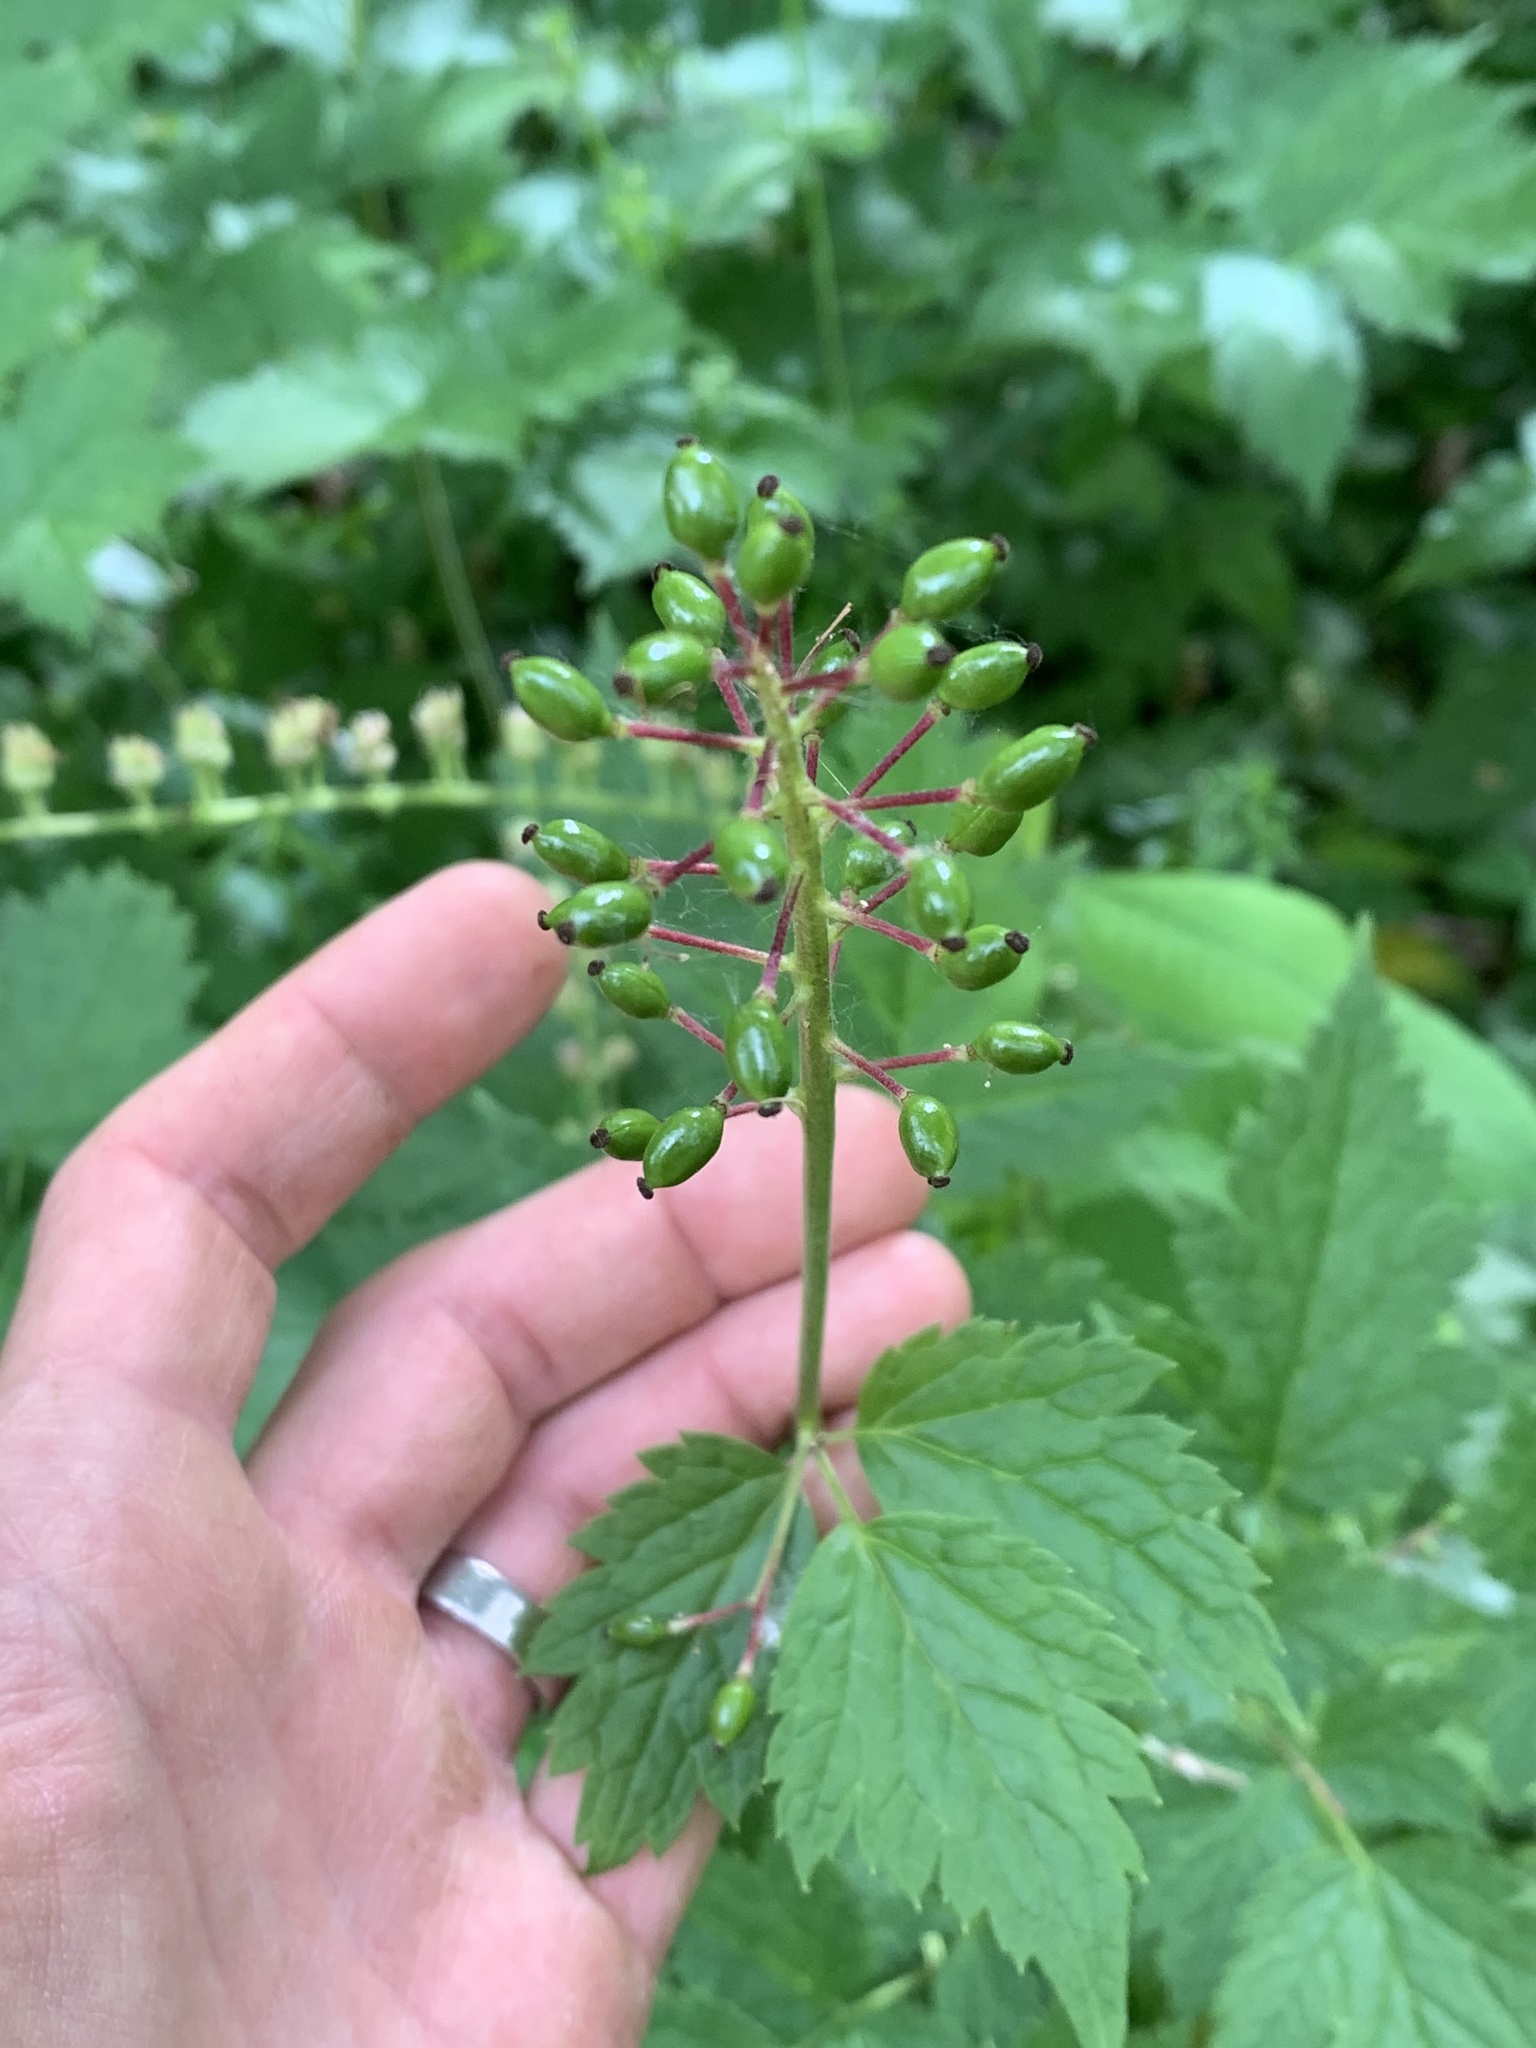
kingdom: Plantae
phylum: Tracheophyta
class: Magnoliopsida
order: Ranunculales
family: Ranunculaceae
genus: Actaea
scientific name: Actaea rubra
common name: Red baneberry
